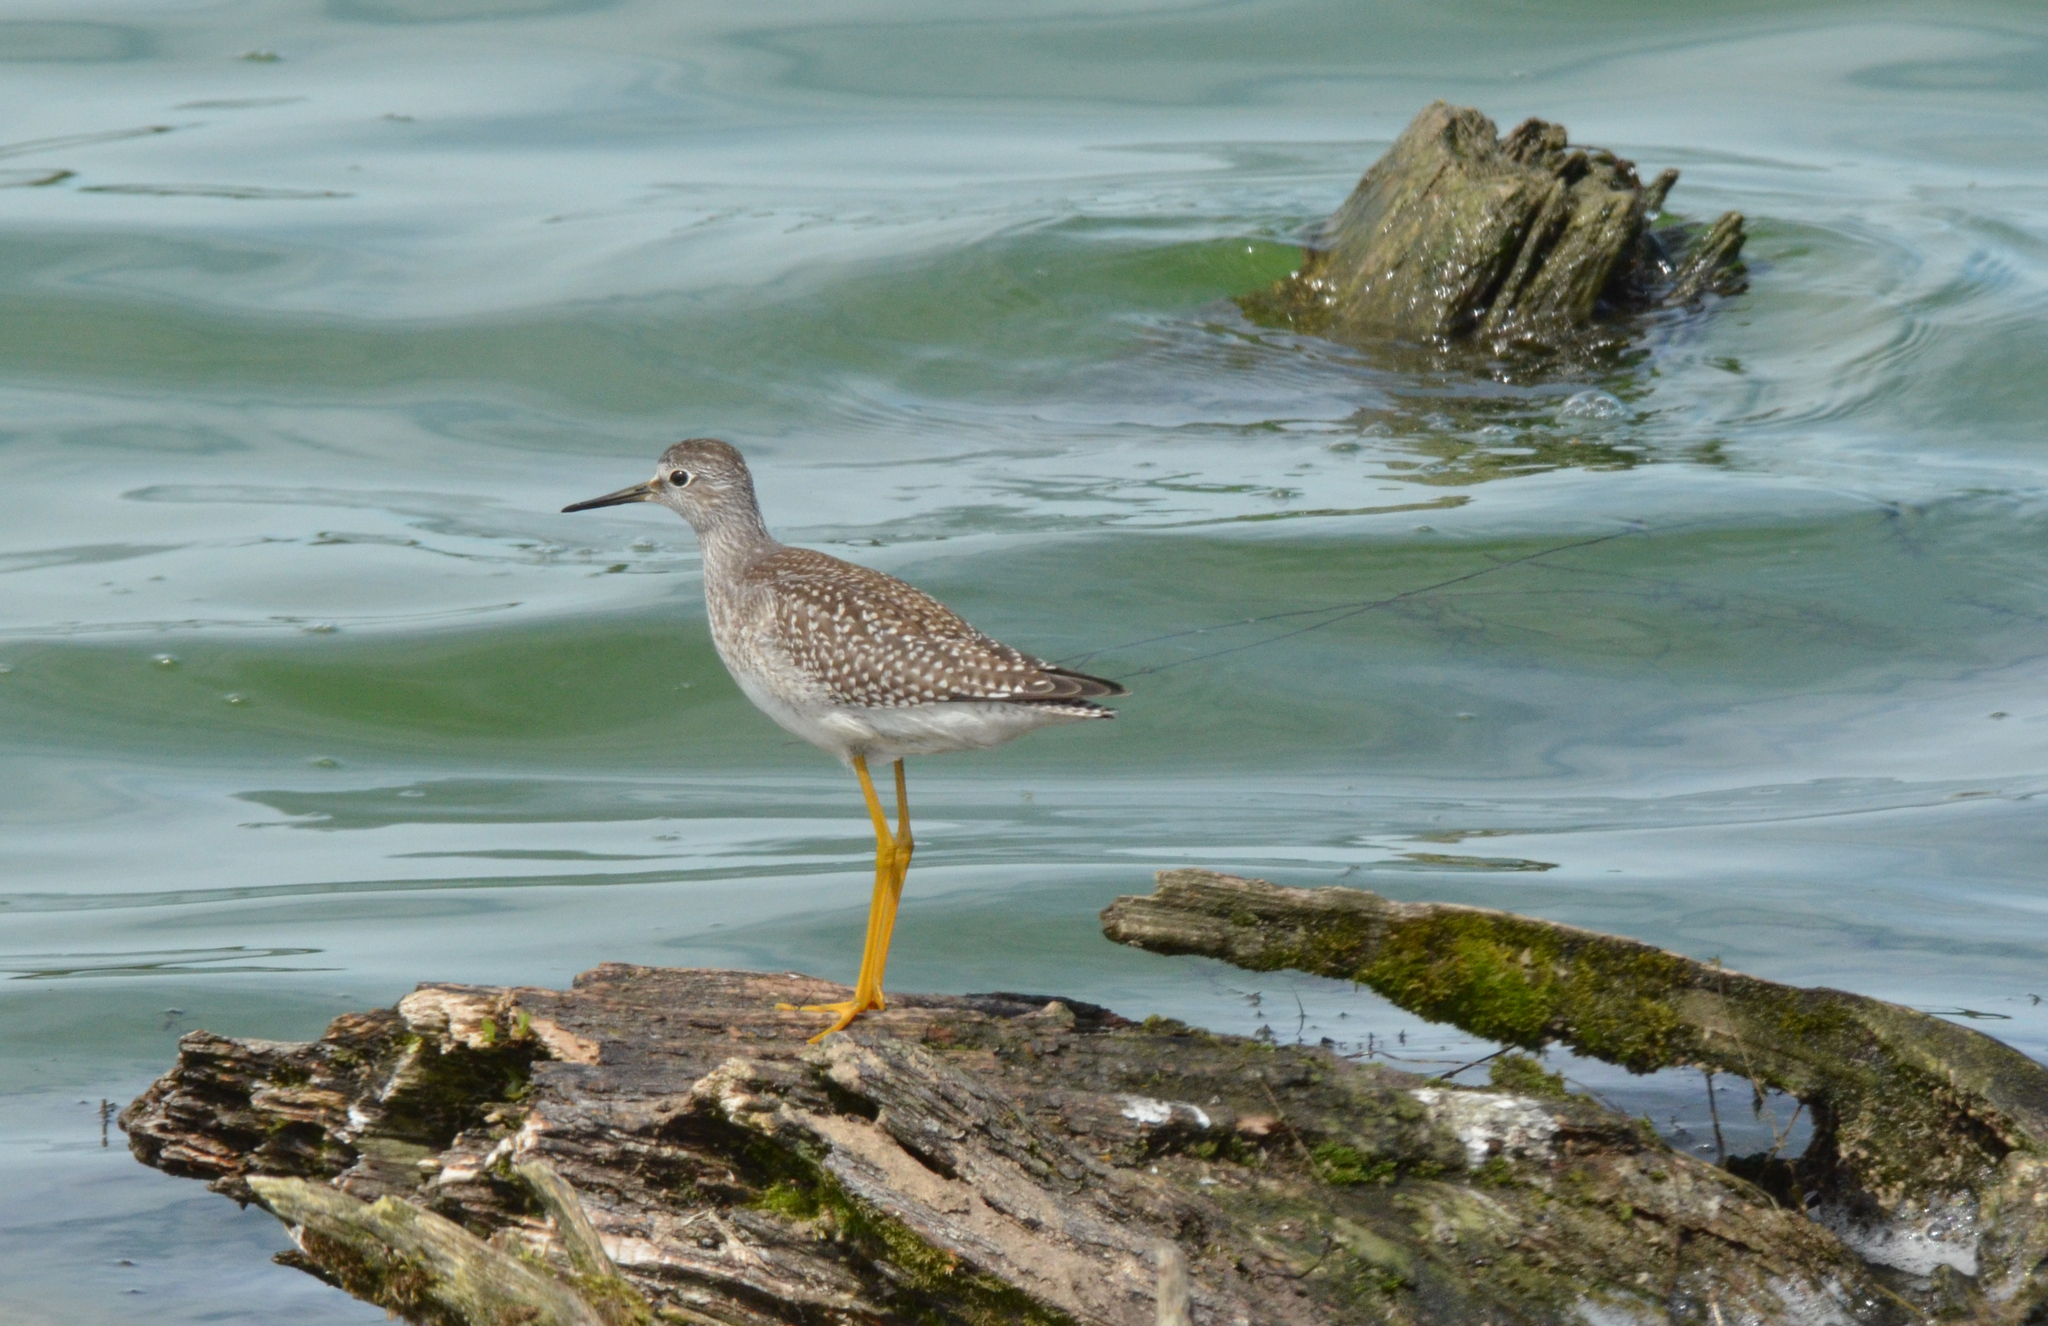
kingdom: Animalia
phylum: Chordata
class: Aves
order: Charadriiformes
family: Scolopacidae
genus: Tringa
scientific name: Tringa flavipes
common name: Lesser yellowlegs
